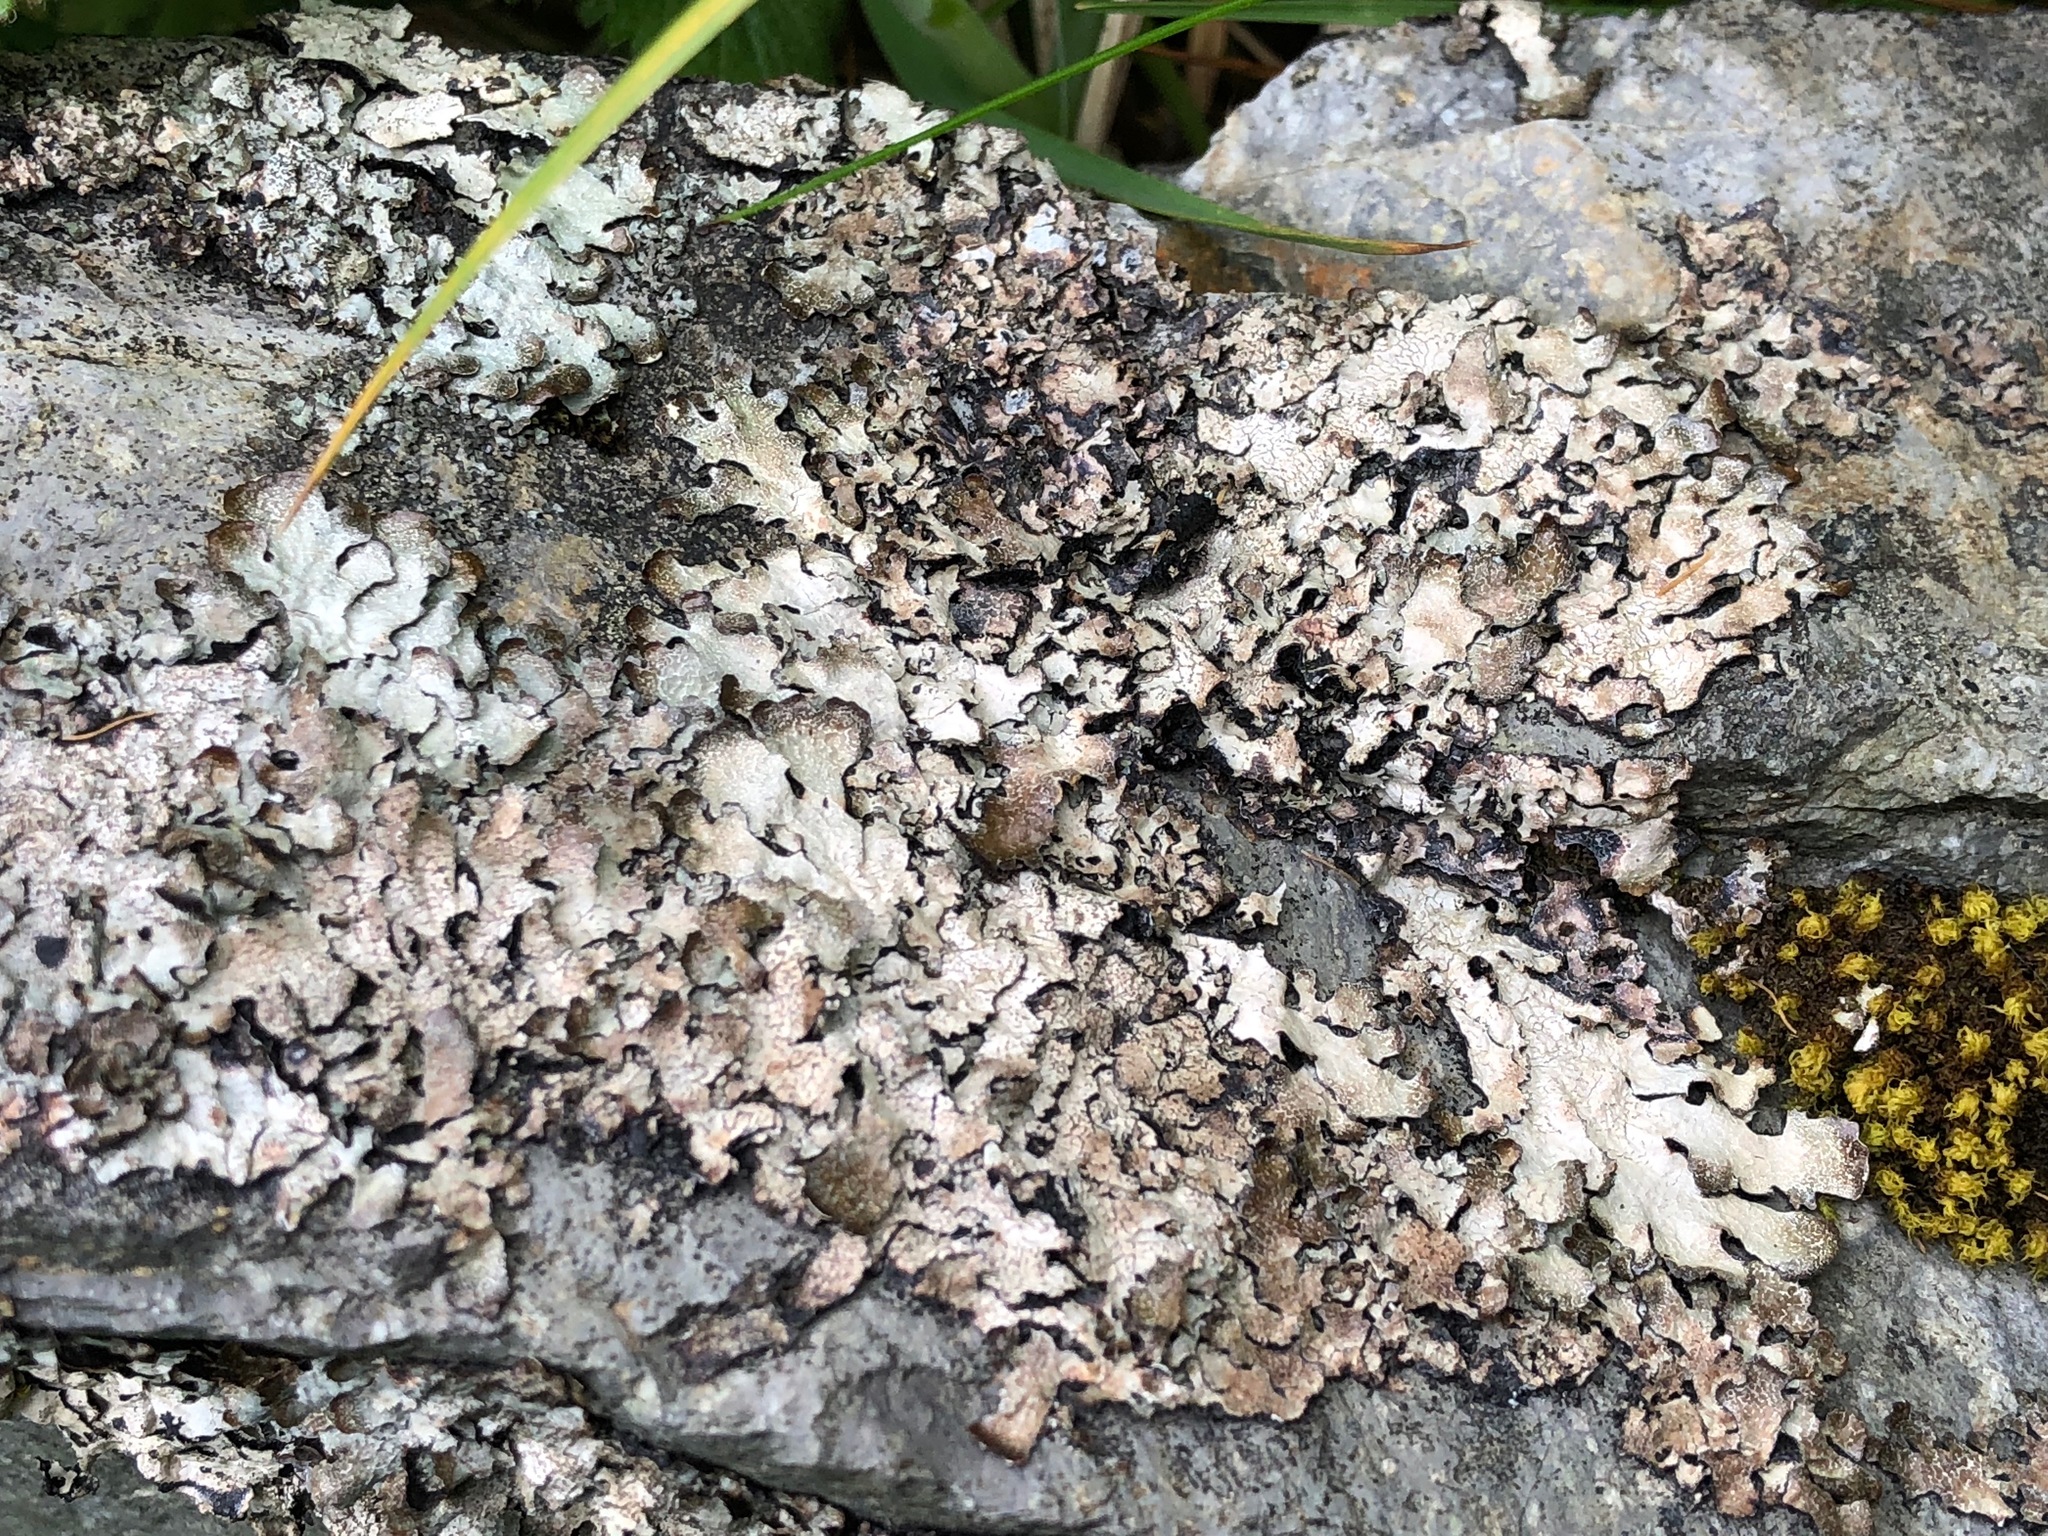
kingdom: Fungi
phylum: Ascomycota
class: Lecanoromycetes
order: Lecanorales
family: Parmeliaceae
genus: Parmelia
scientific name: Parmelia sulcata
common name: Netted shield lichen
